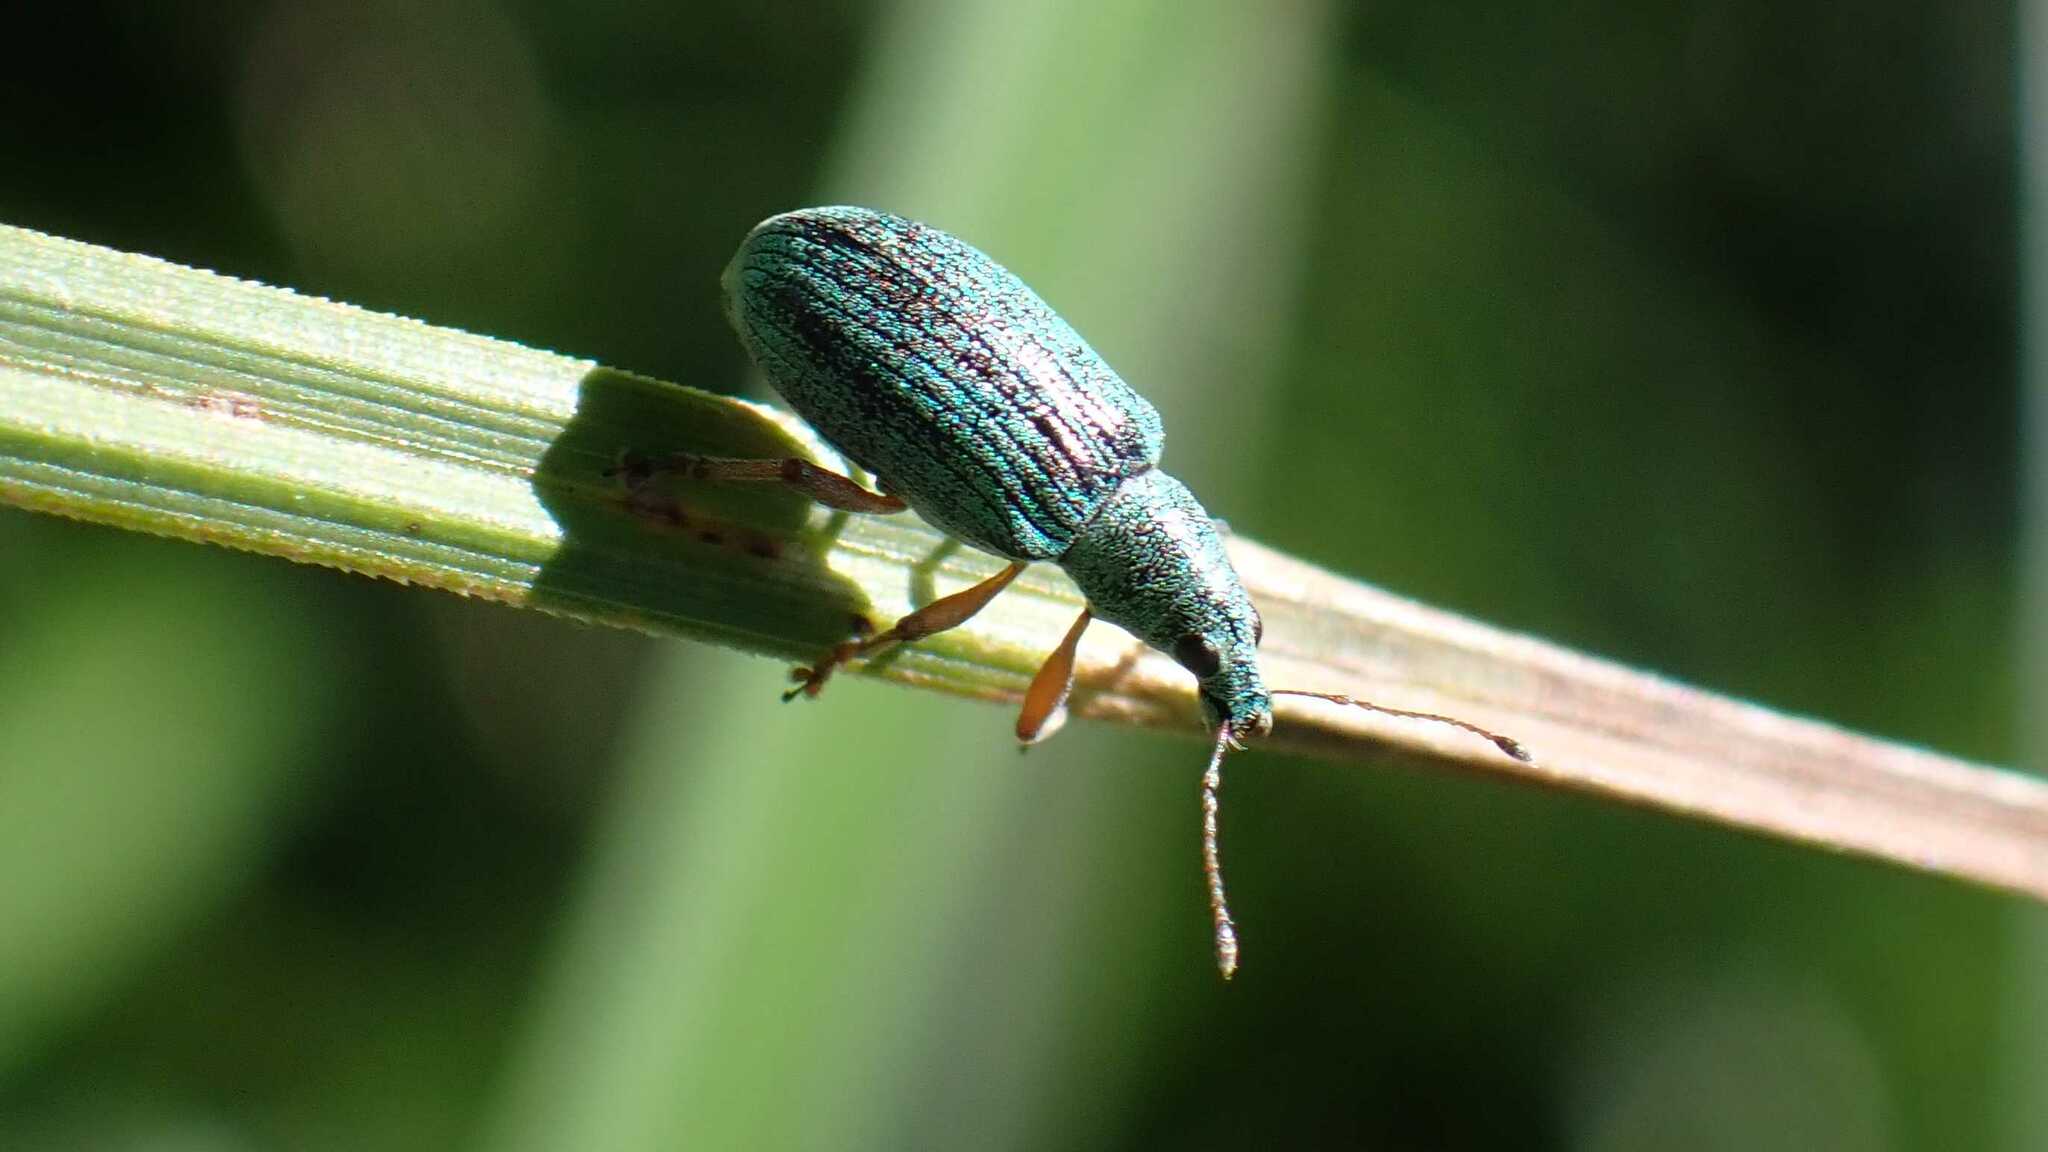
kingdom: Animalia
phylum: Arthropoda
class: Insecta
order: Coleoptera
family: Curculionidae
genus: Polydrusus
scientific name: Polydrusus formosus
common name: Weevil
